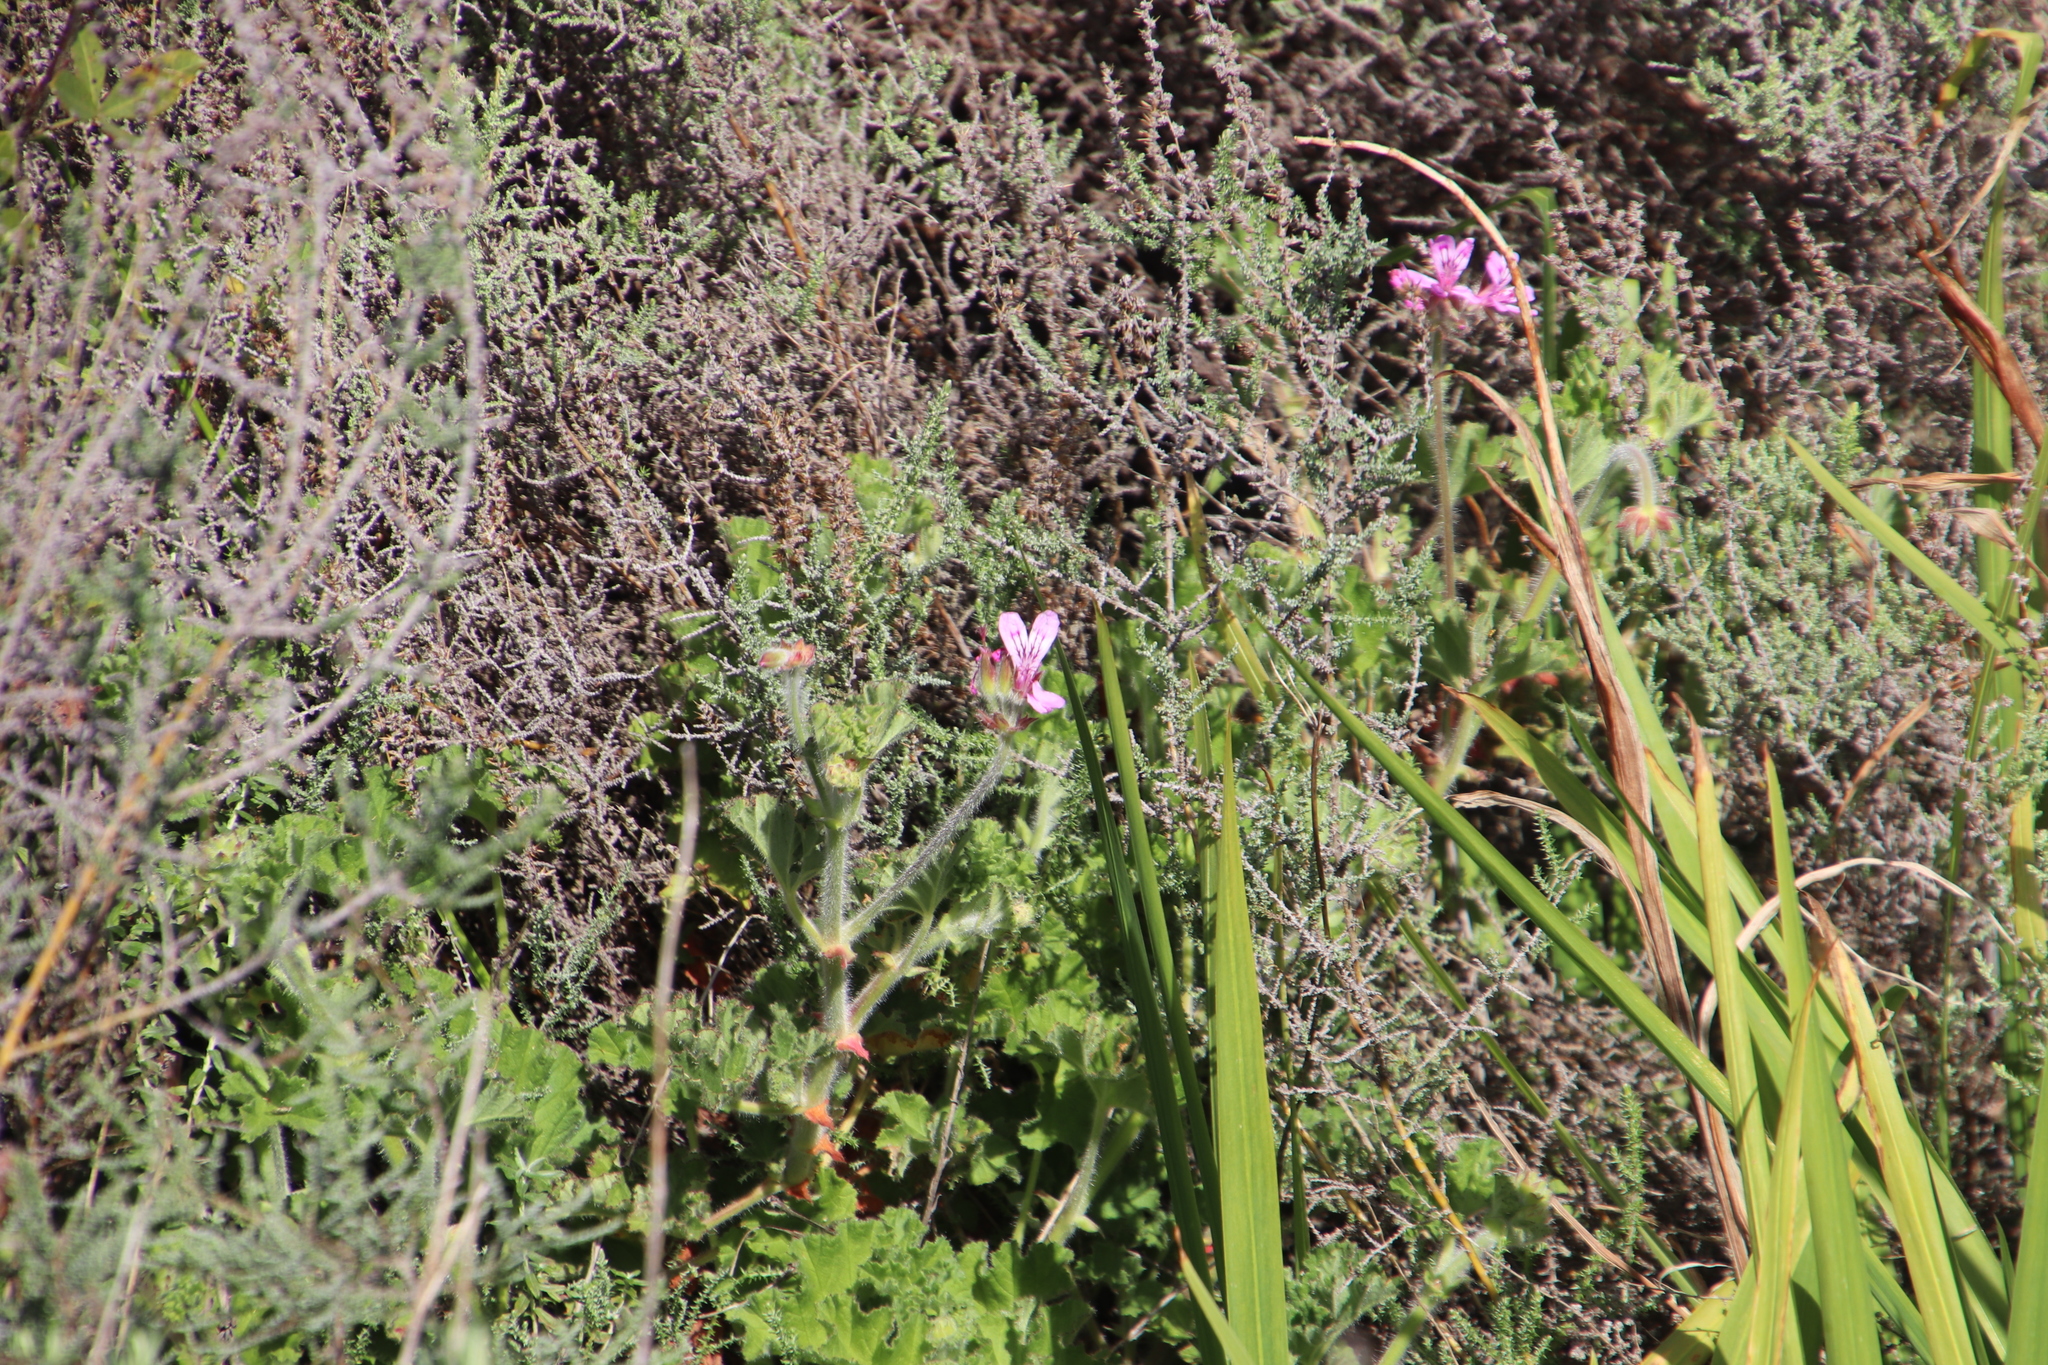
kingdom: Plantae
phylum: Tracheophyta
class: Magnoliopsida
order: Geraniales
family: Geraniaceae
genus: Pelargonium
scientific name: Pelargonium capitatum
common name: Rose scented geranium
